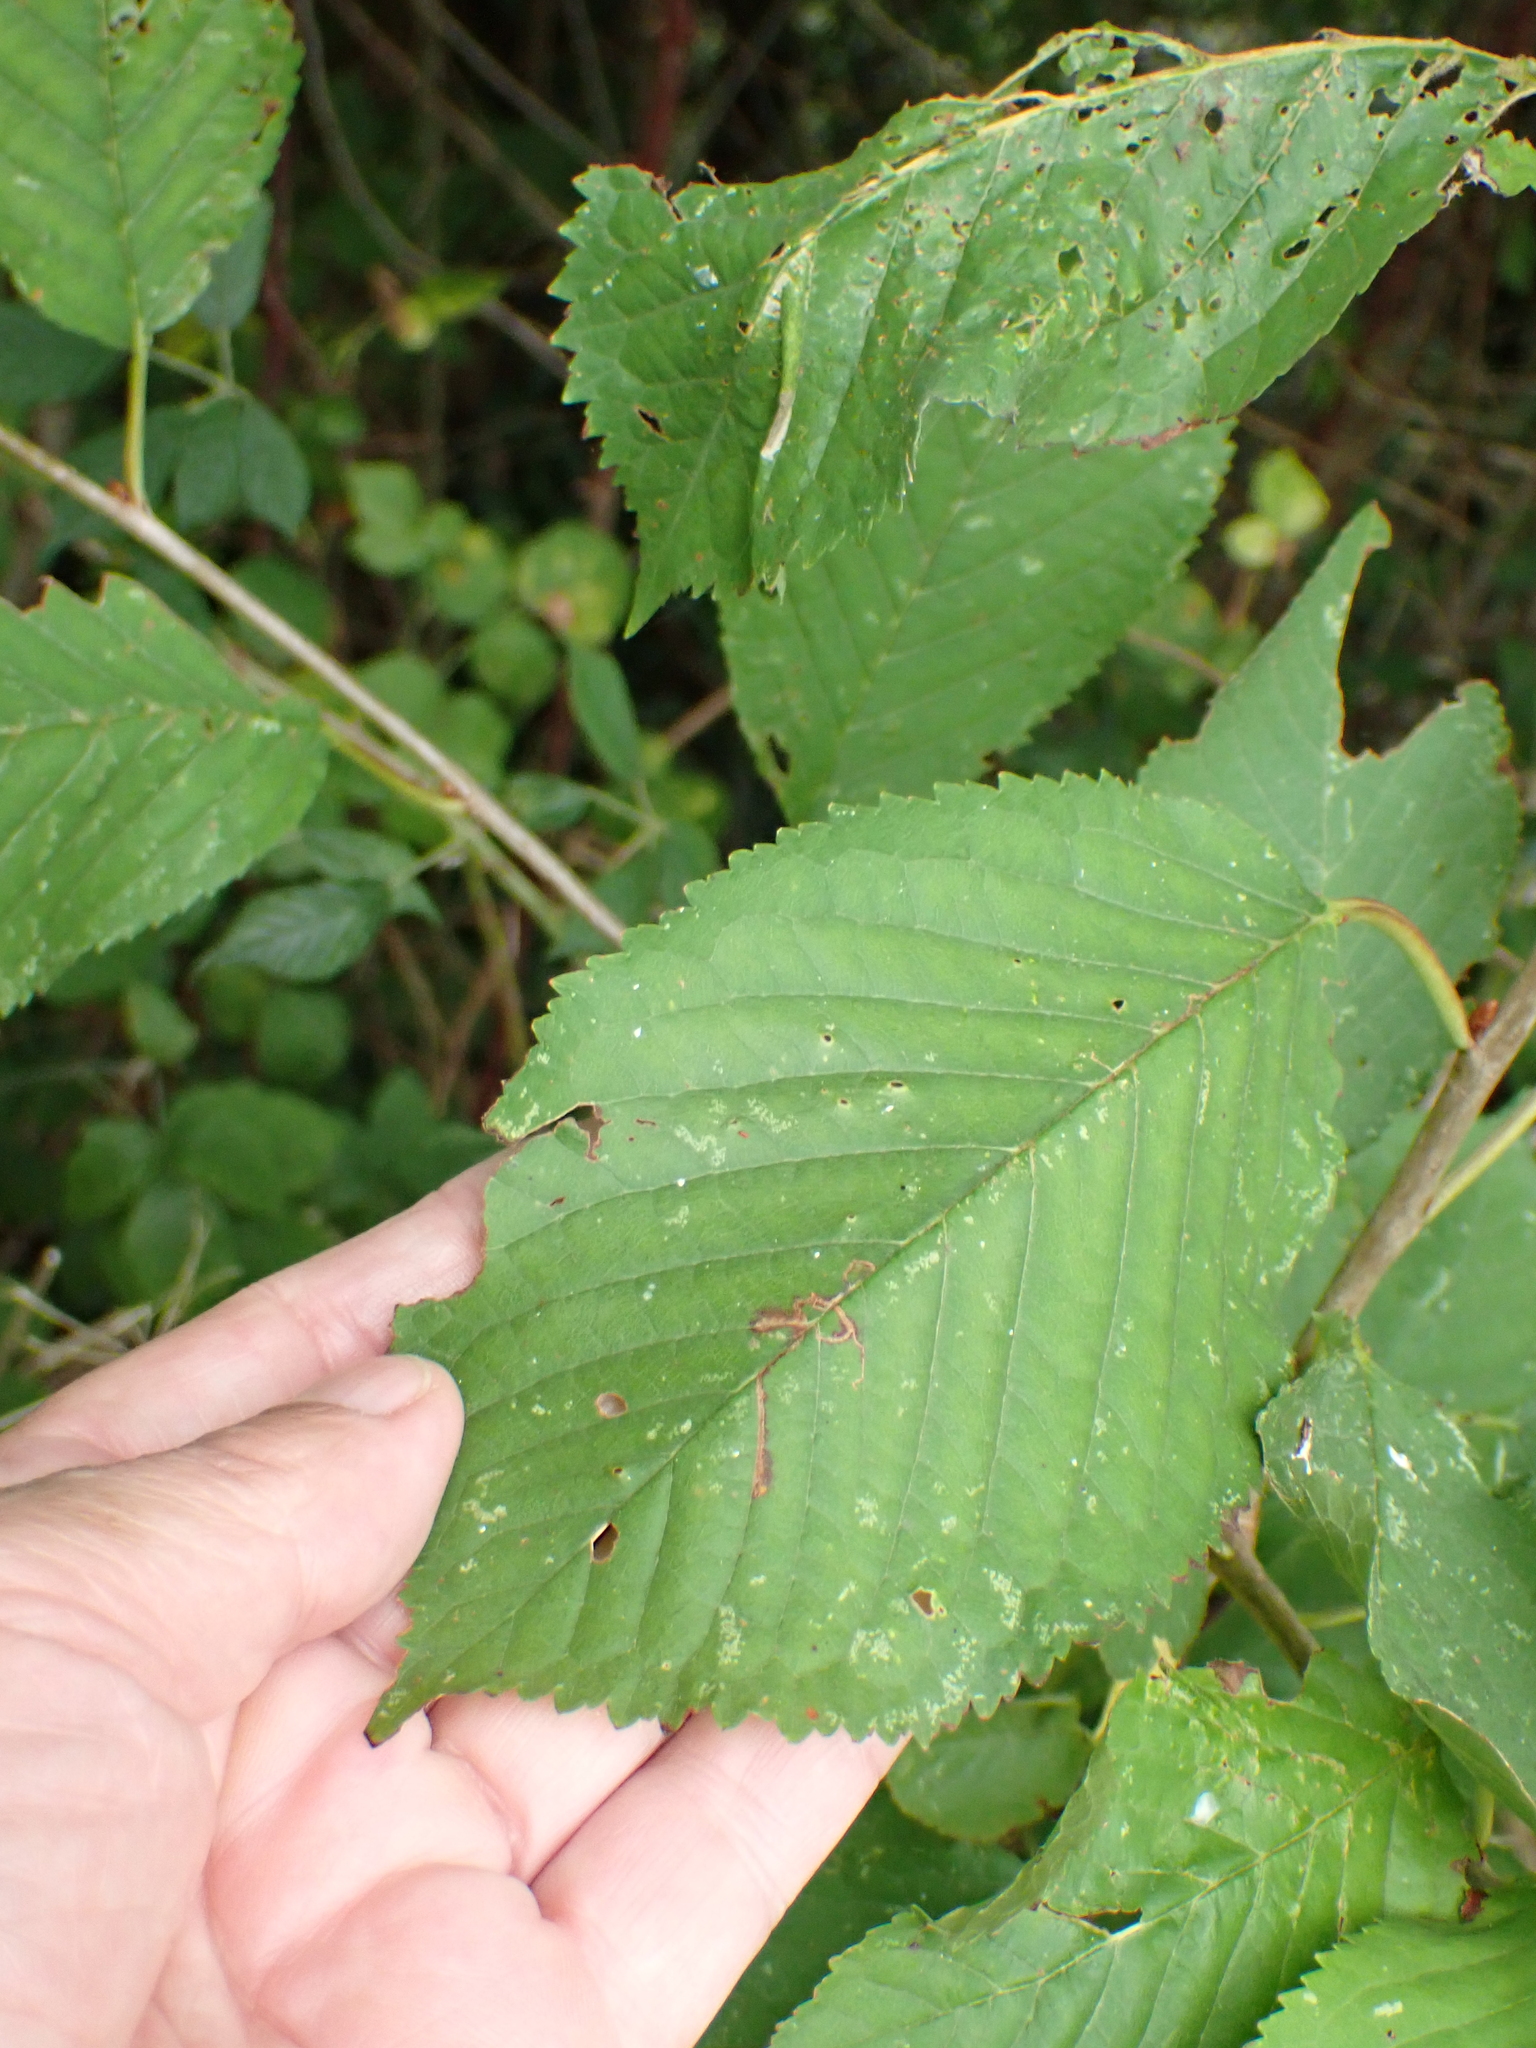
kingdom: Plantae
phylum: Tracheophyta
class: Magnoliopsida
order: Rosales
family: Rosaceae
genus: Prunus
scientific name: Prunus avium
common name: Sweet cherry
